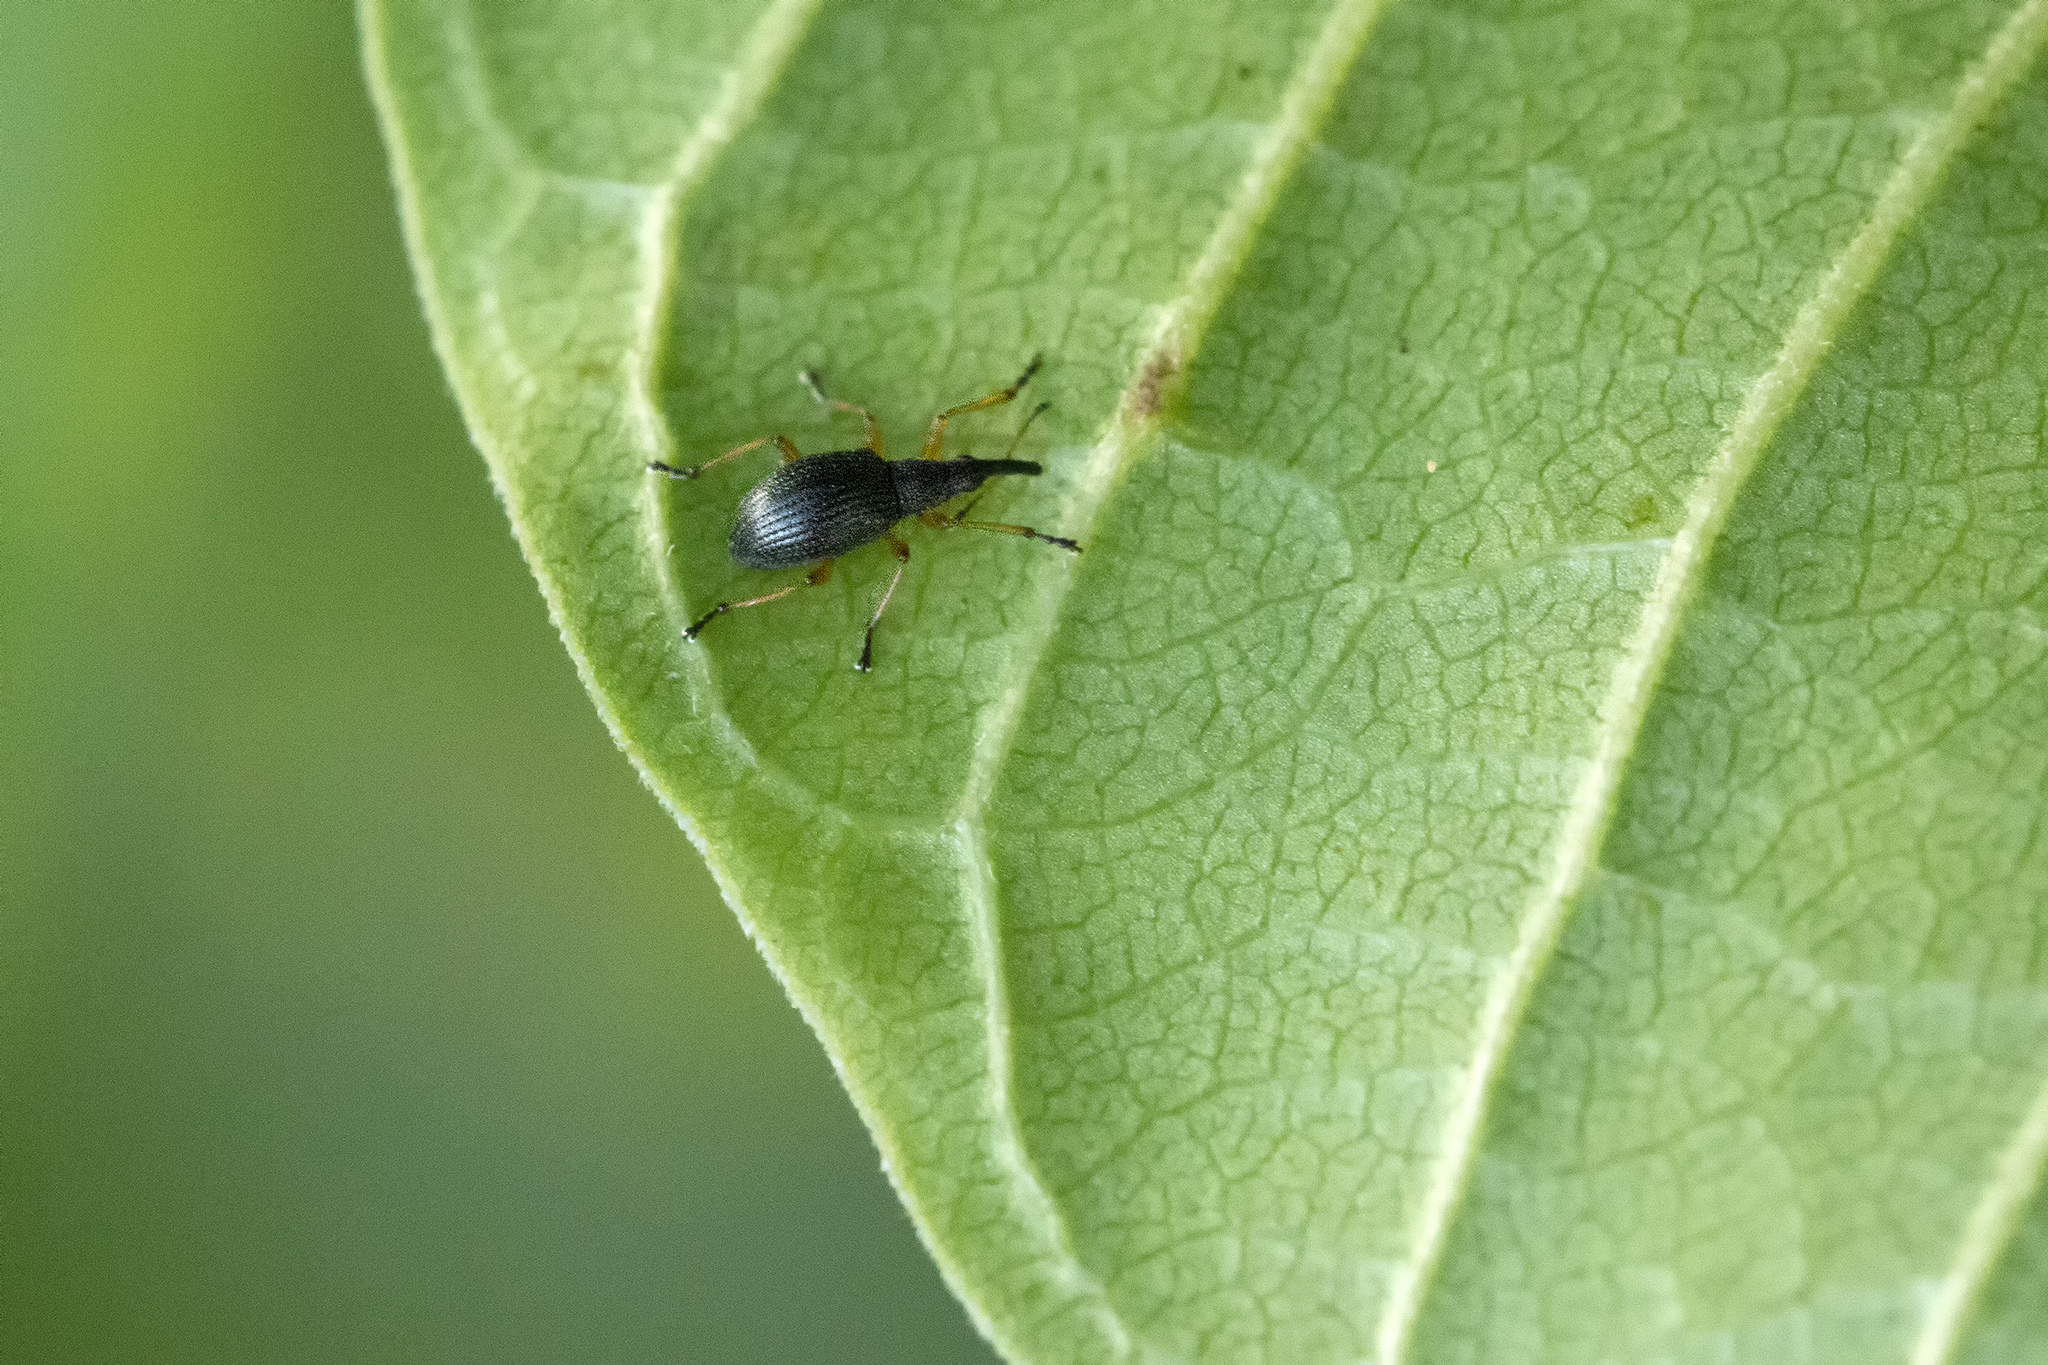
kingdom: Animalia
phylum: Arthropoda
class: Insecta
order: Coleoptera
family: Apionidae
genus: Protapion
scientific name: Protapion fulvipes
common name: White clover seed weevil
